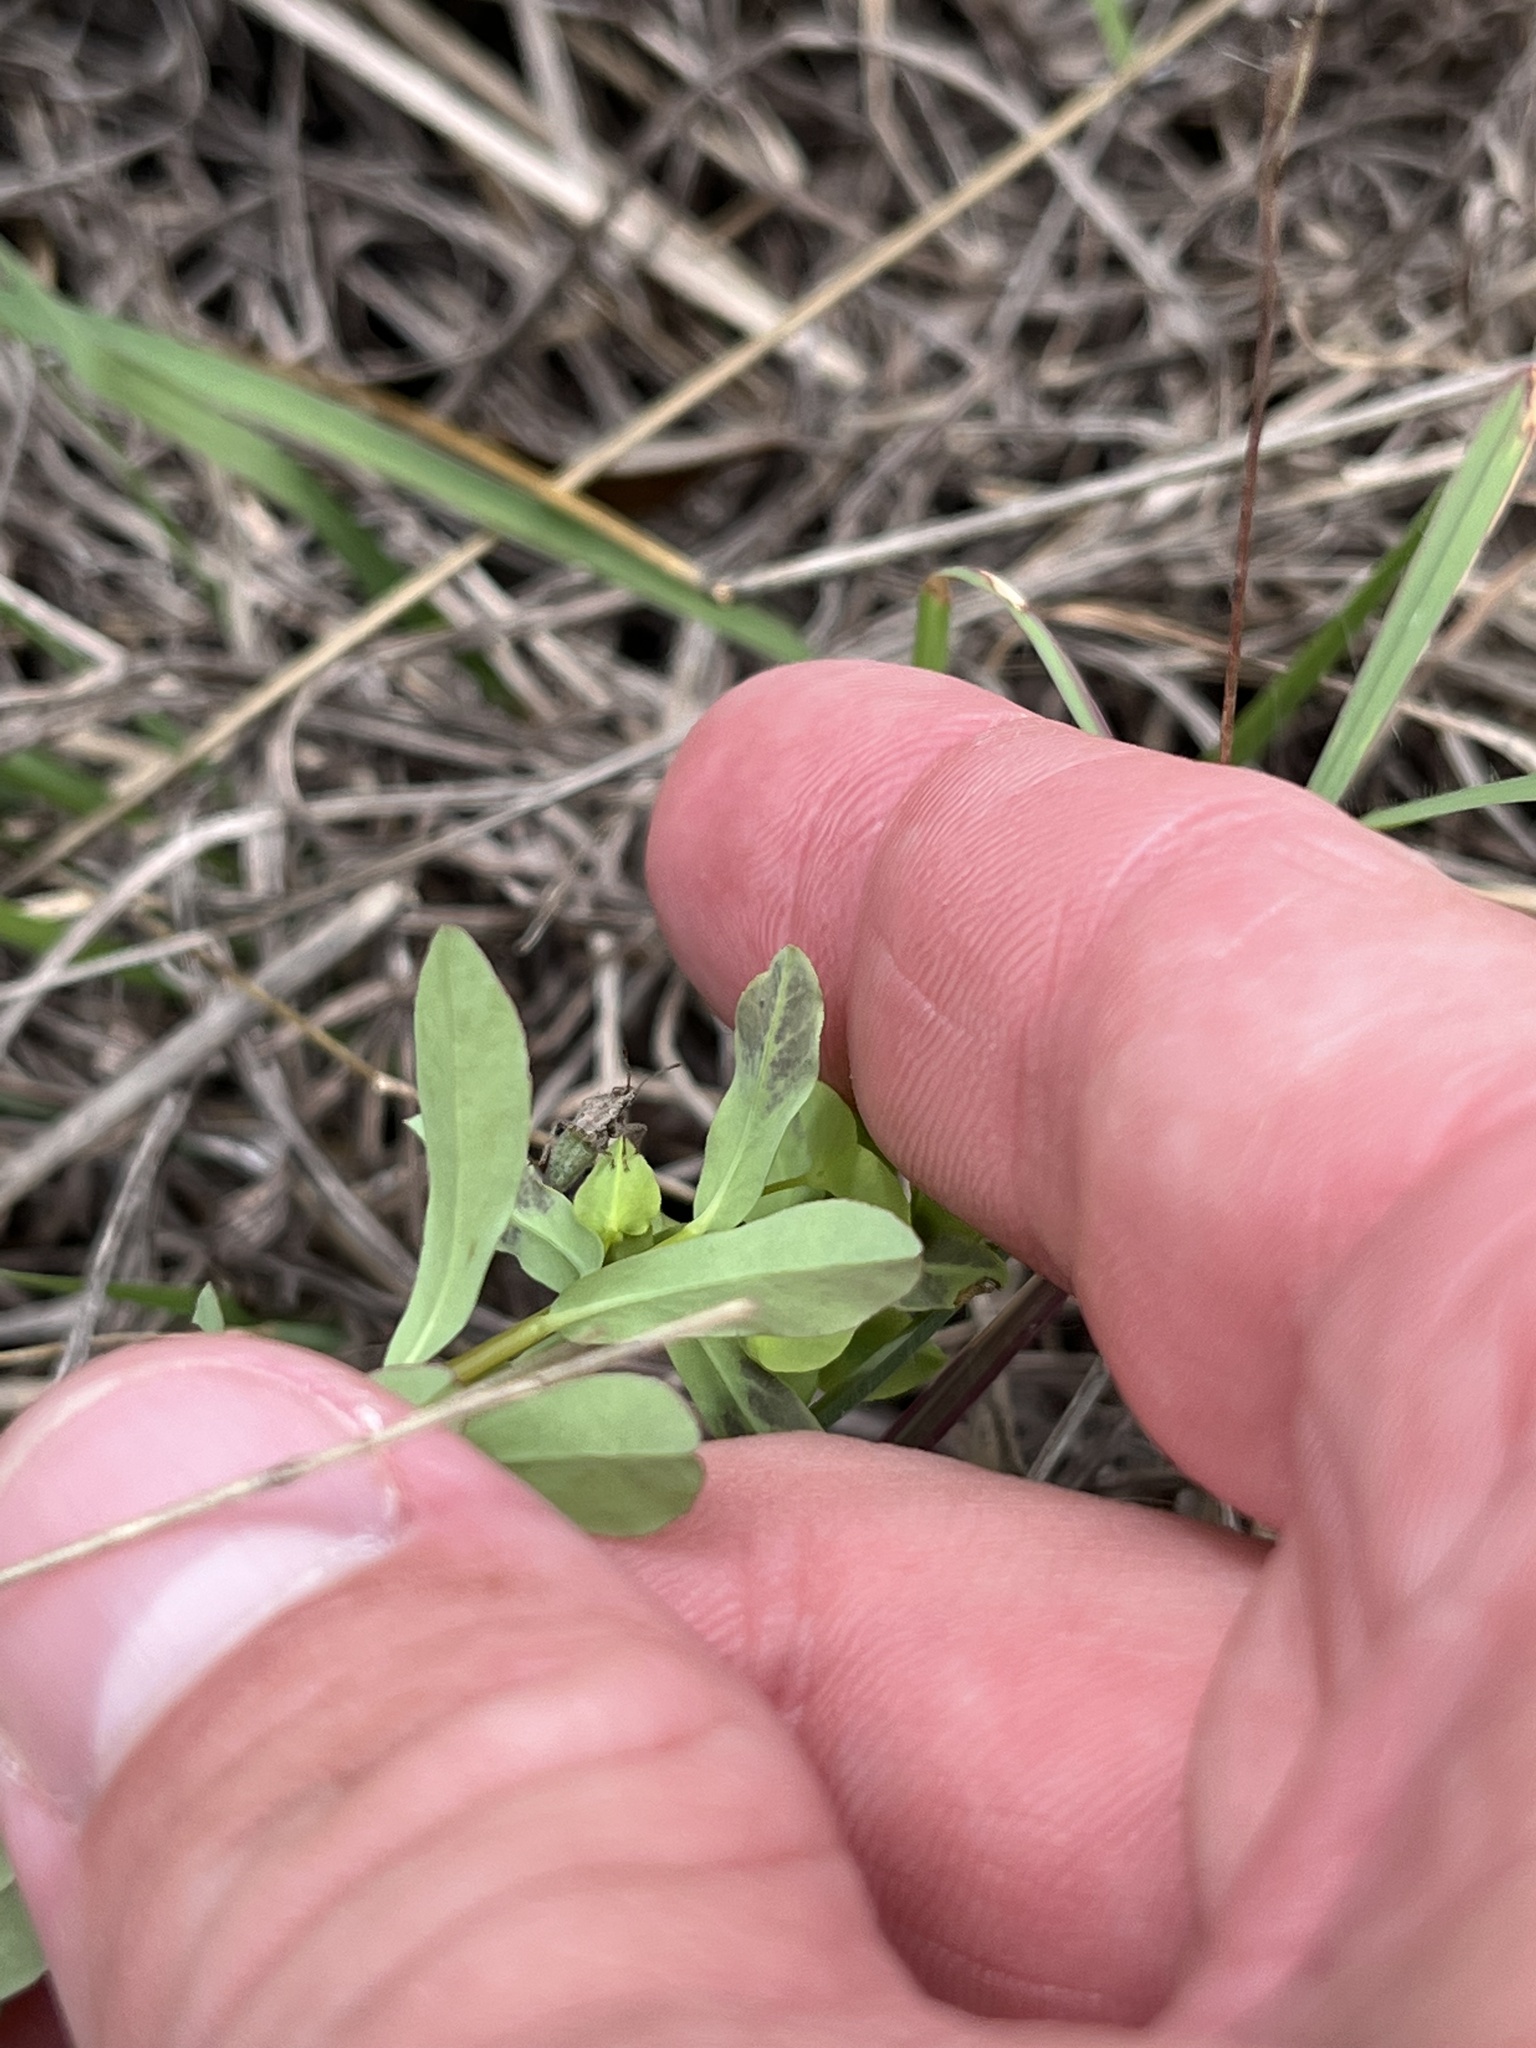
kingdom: Plantae
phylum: Tracheophyta
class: Magnoliopsida
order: Malpighiales
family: Euphorbiaceae
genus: Euphorbia
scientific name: Euphorbia spathulata
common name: Blunt spurge
